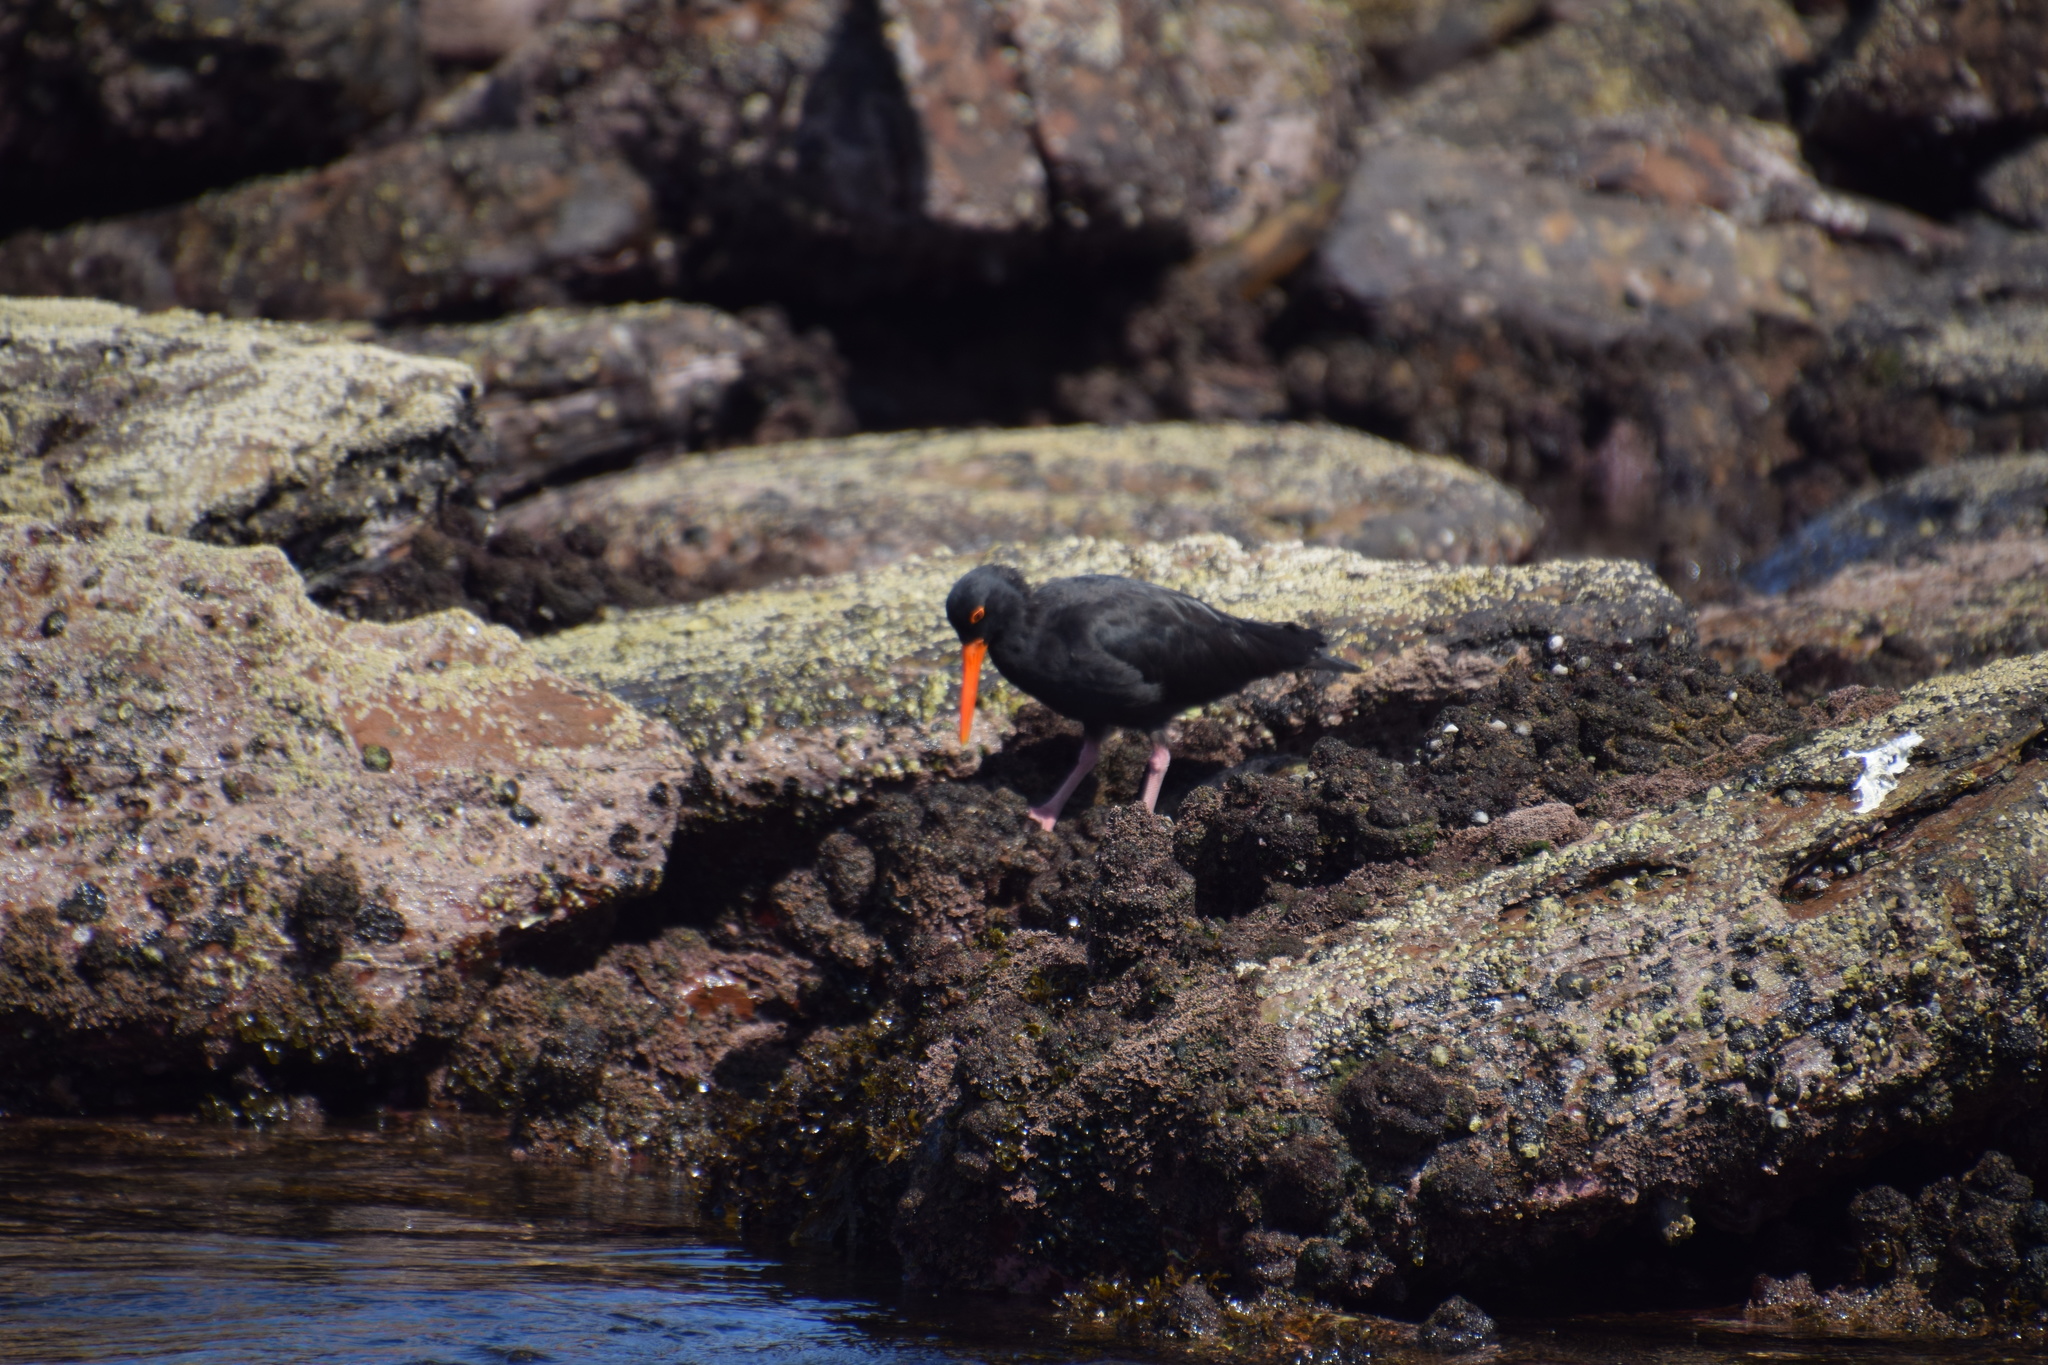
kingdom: Animalia
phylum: Chordata
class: Aves
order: Charadriiformes
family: Haematopodidae
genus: Haematopus
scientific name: Haematopus fuliginosus
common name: Sooty oystercatcher
